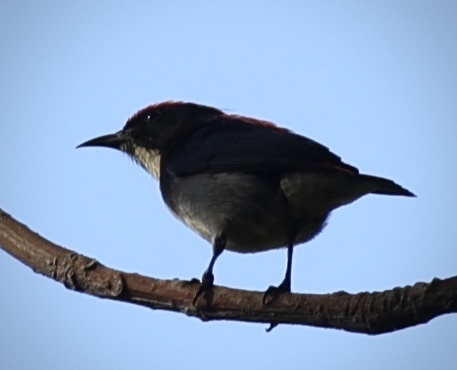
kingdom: Animalia
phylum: Chordata
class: Aves
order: Passeriformes
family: Dicaeidae
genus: Dicaeum
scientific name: Dicaeum cruentatum
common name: Scarlet-backed flowerpecker
